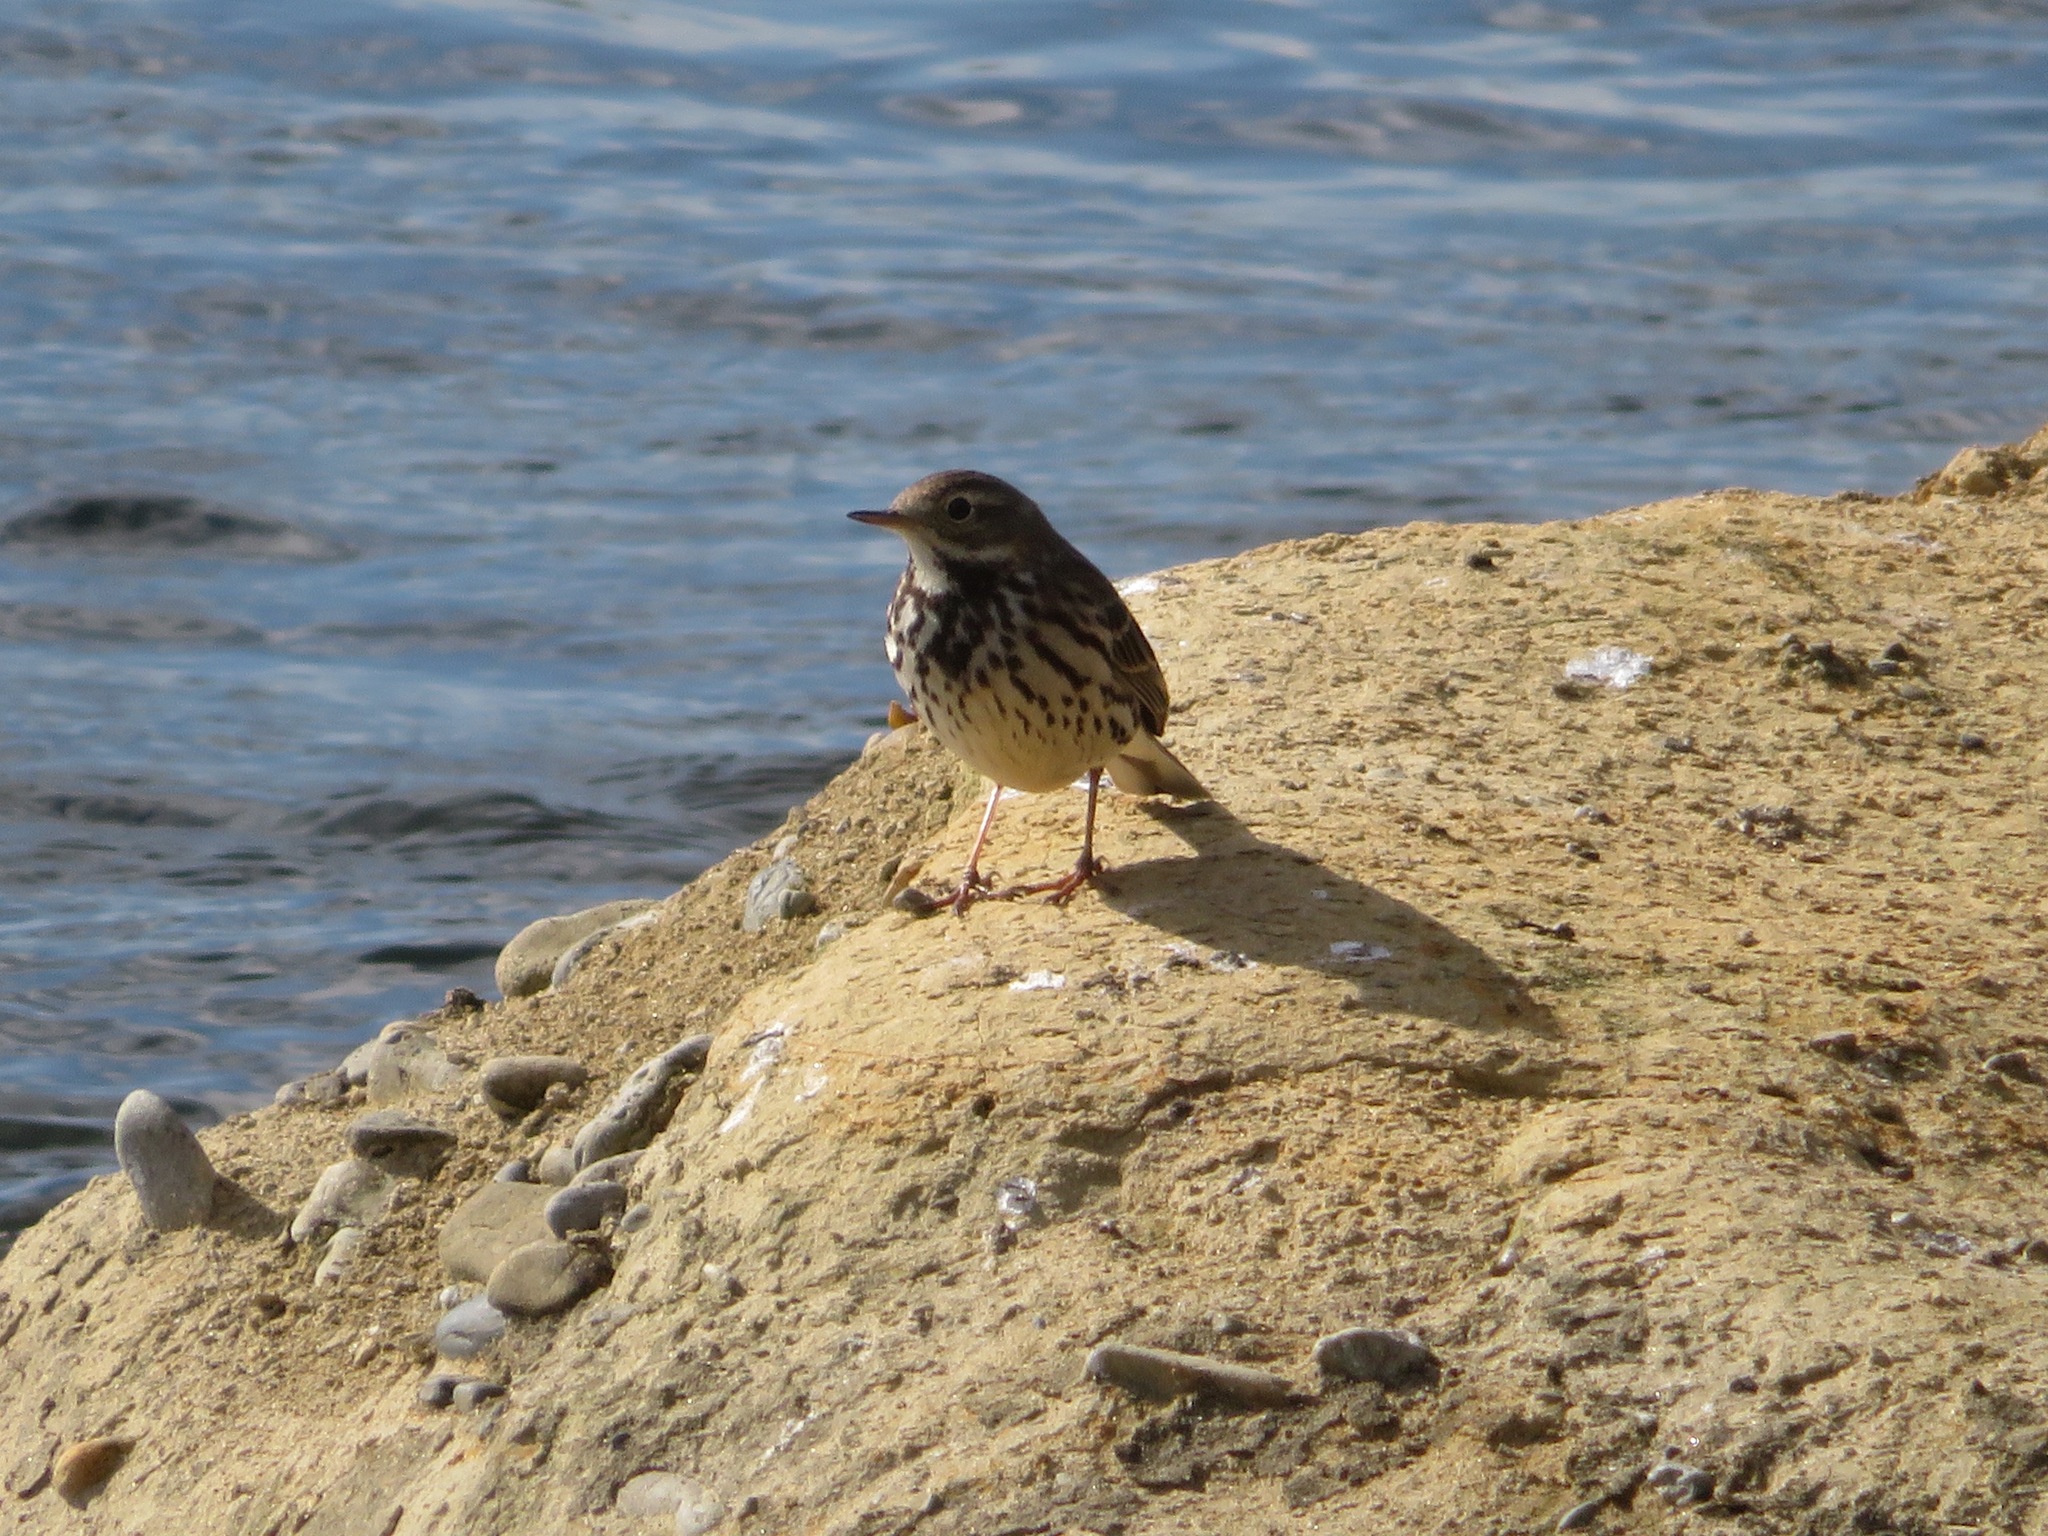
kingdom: Animalia
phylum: Chordata
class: Aves
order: Passeriformes
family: Motacillidae
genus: Anthus
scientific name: Anthus rubescens
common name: Buff-bellied pipit
